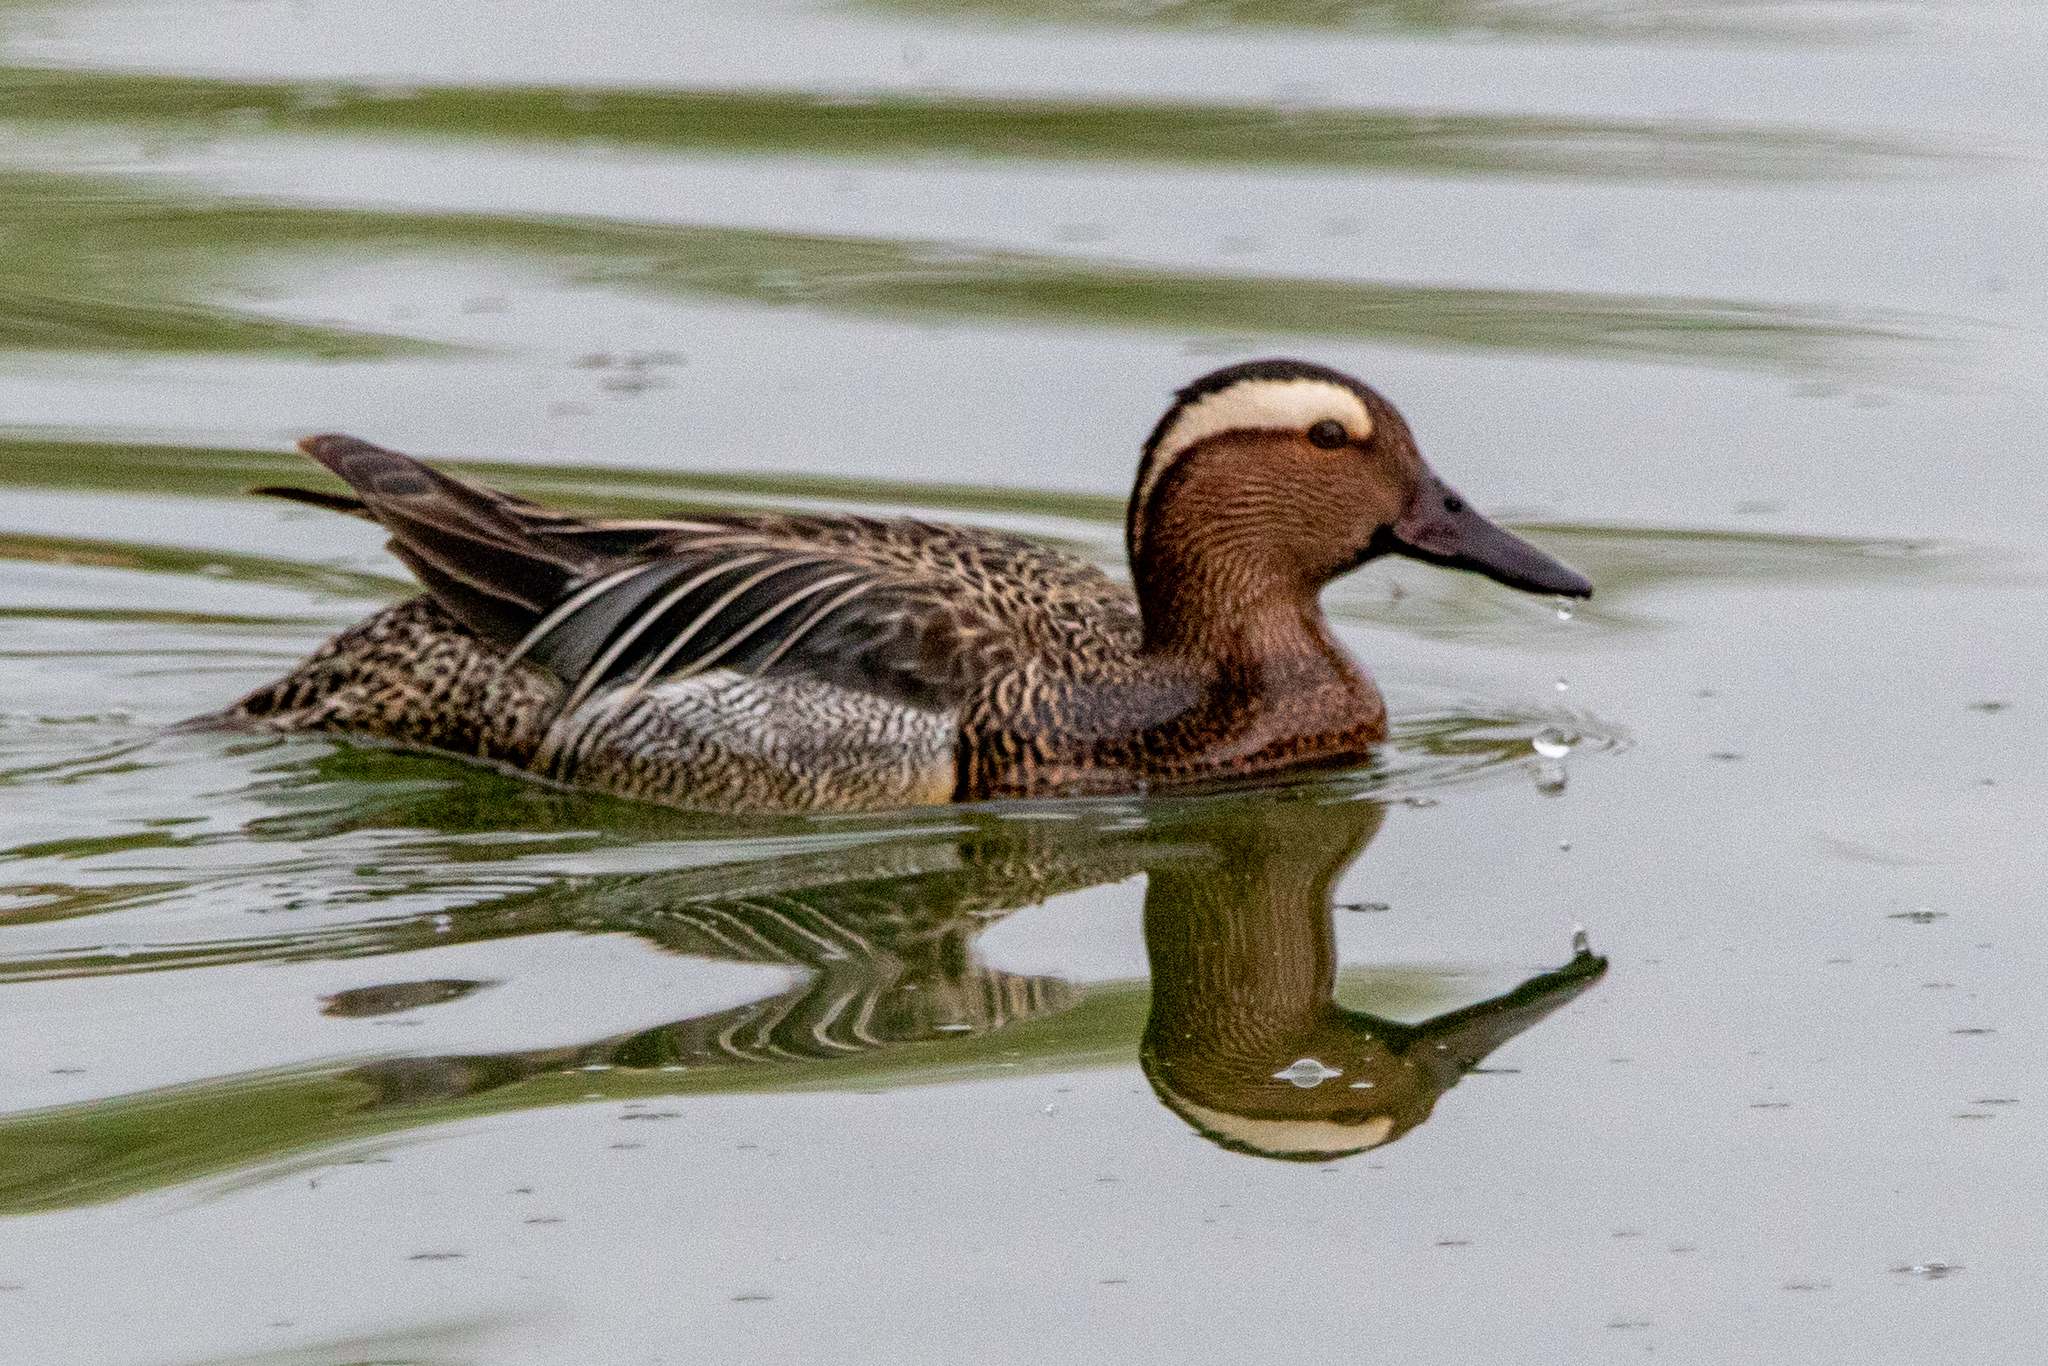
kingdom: Animalia
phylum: Chordata
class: Aves
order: Anseriformes
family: Anatidae
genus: Spatula
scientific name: Spatula querquedula
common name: Garganey
